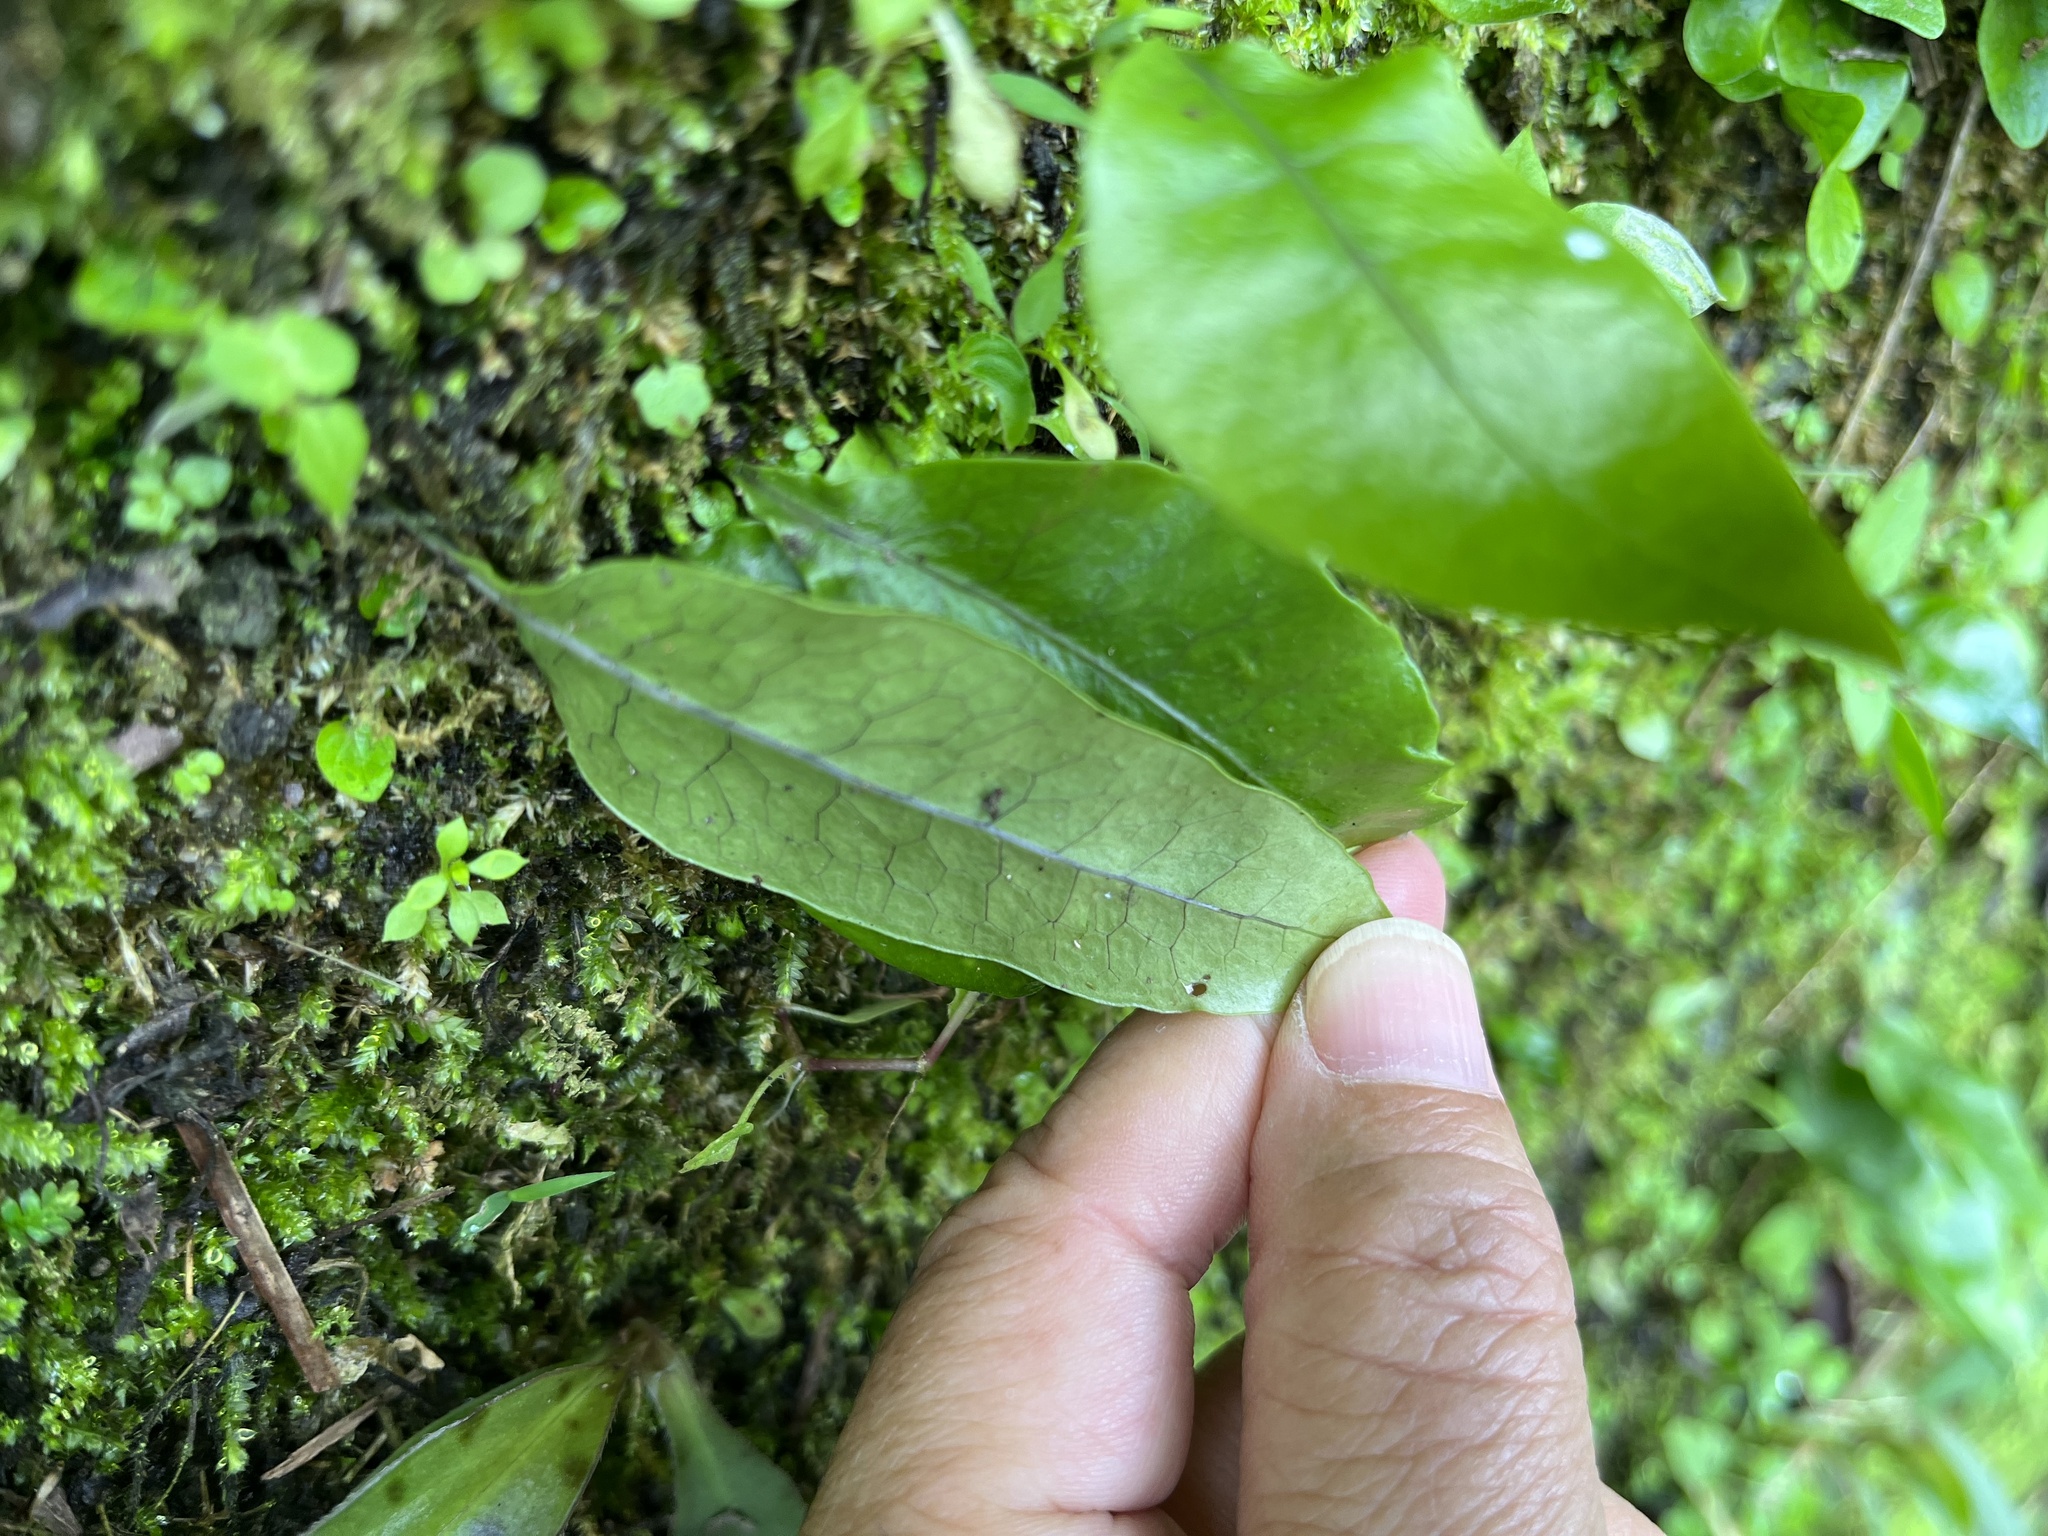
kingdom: Plantae
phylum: Tracheophyta
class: Polypodiopsida
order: Polypodiales
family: Polypodiaceae
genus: Leptochilus
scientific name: Leptochilus ellipticus
